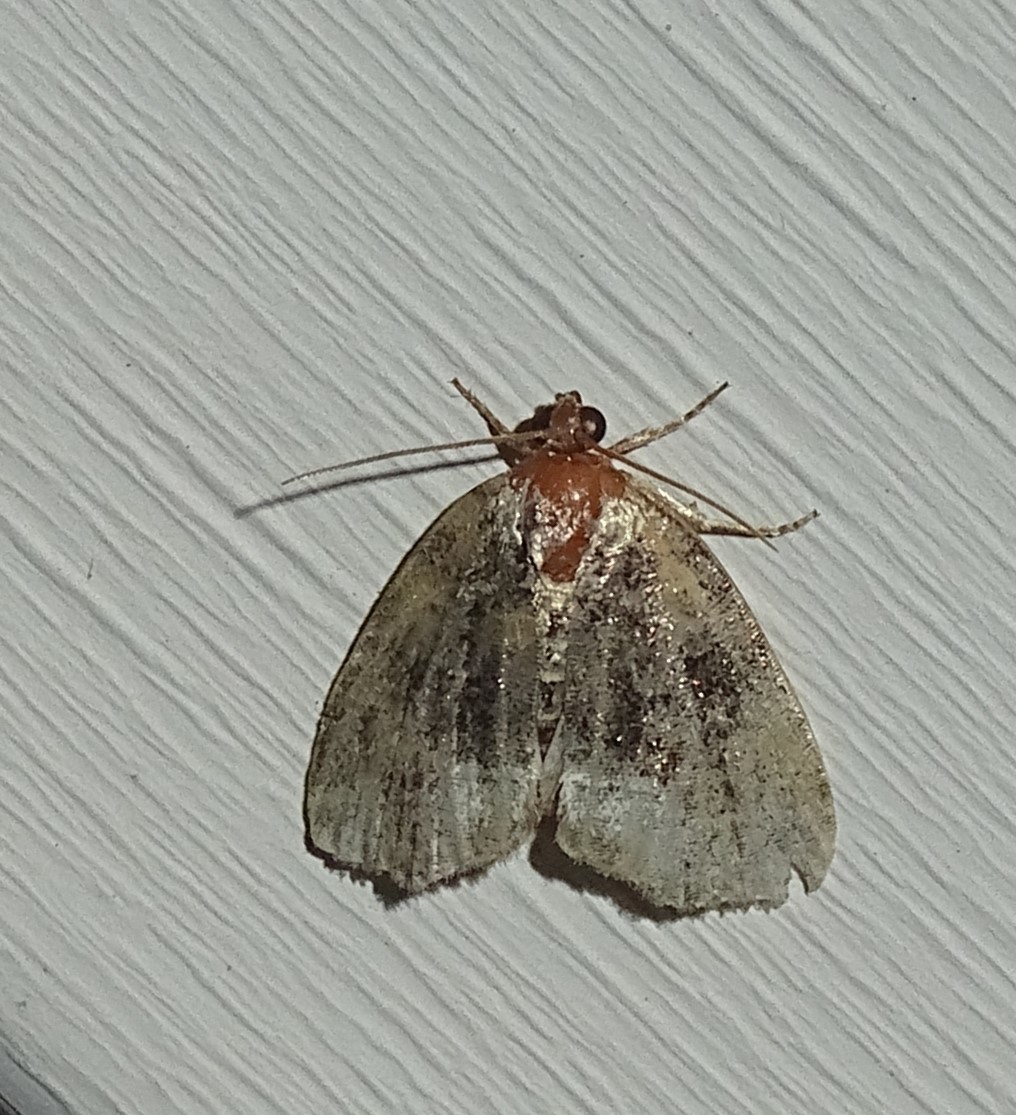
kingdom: Animalia
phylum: Arthropoda
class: Insecta
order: Lepidoptera
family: Noctuidae
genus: Protodeltote
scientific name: Protodeltote muscosula
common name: Large mossy glyph
